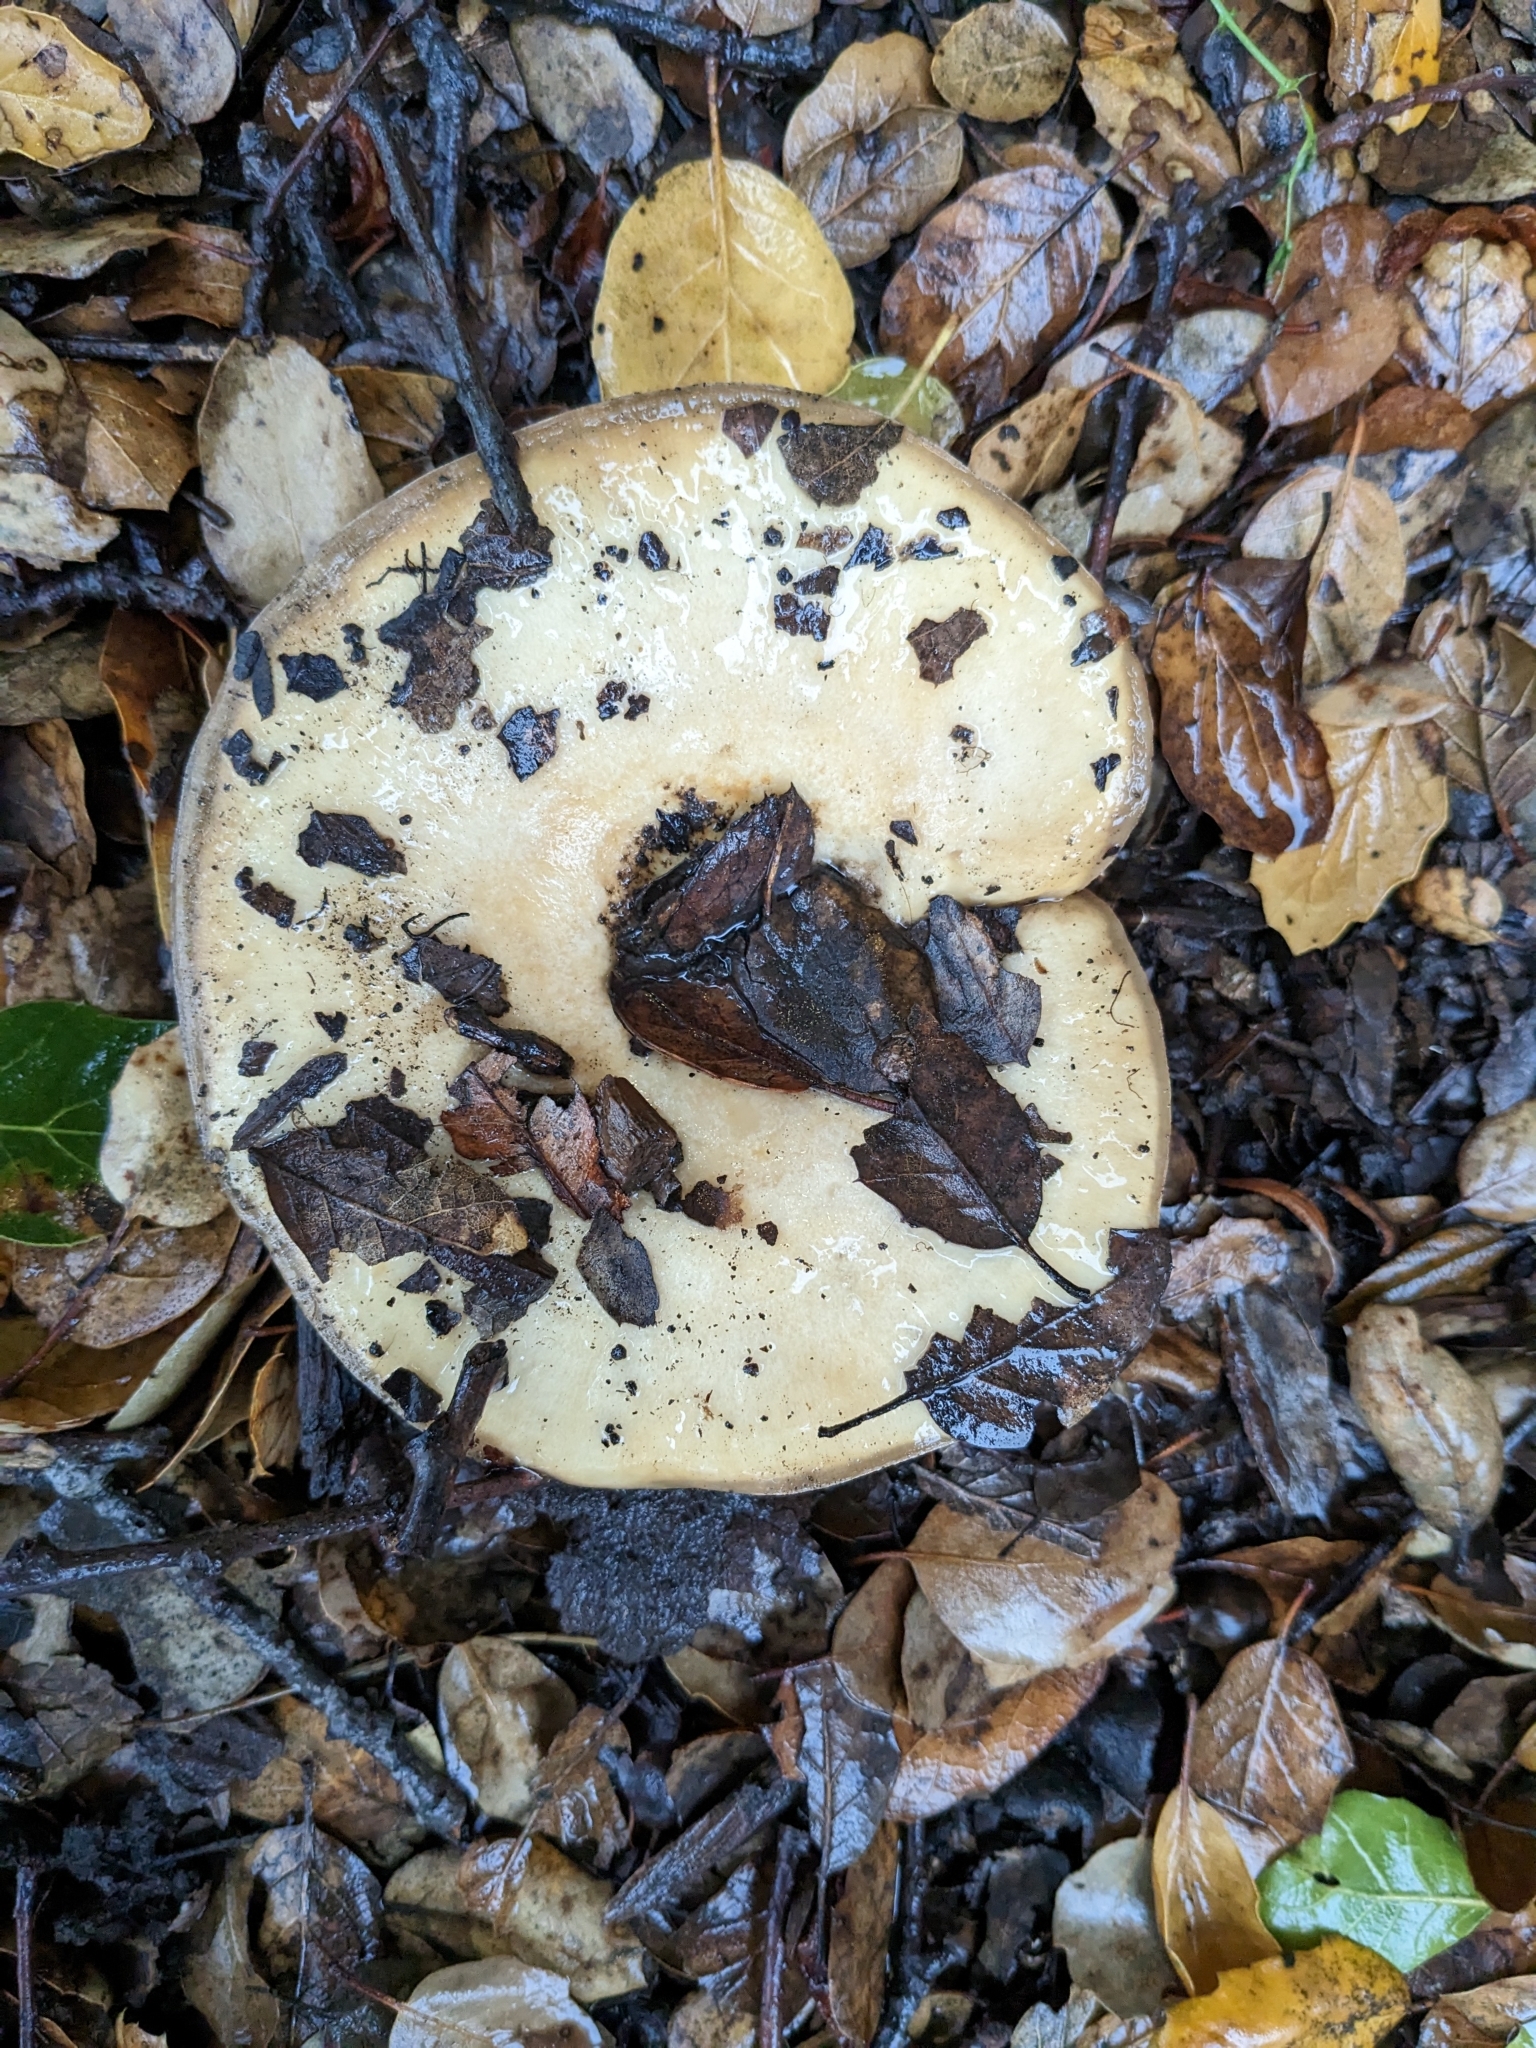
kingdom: Fungi
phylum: Basidiomycota
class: Agaricomycetes
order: Russulales
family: Russulaceae
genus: Lactarius
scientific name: Lactarius alnicola
